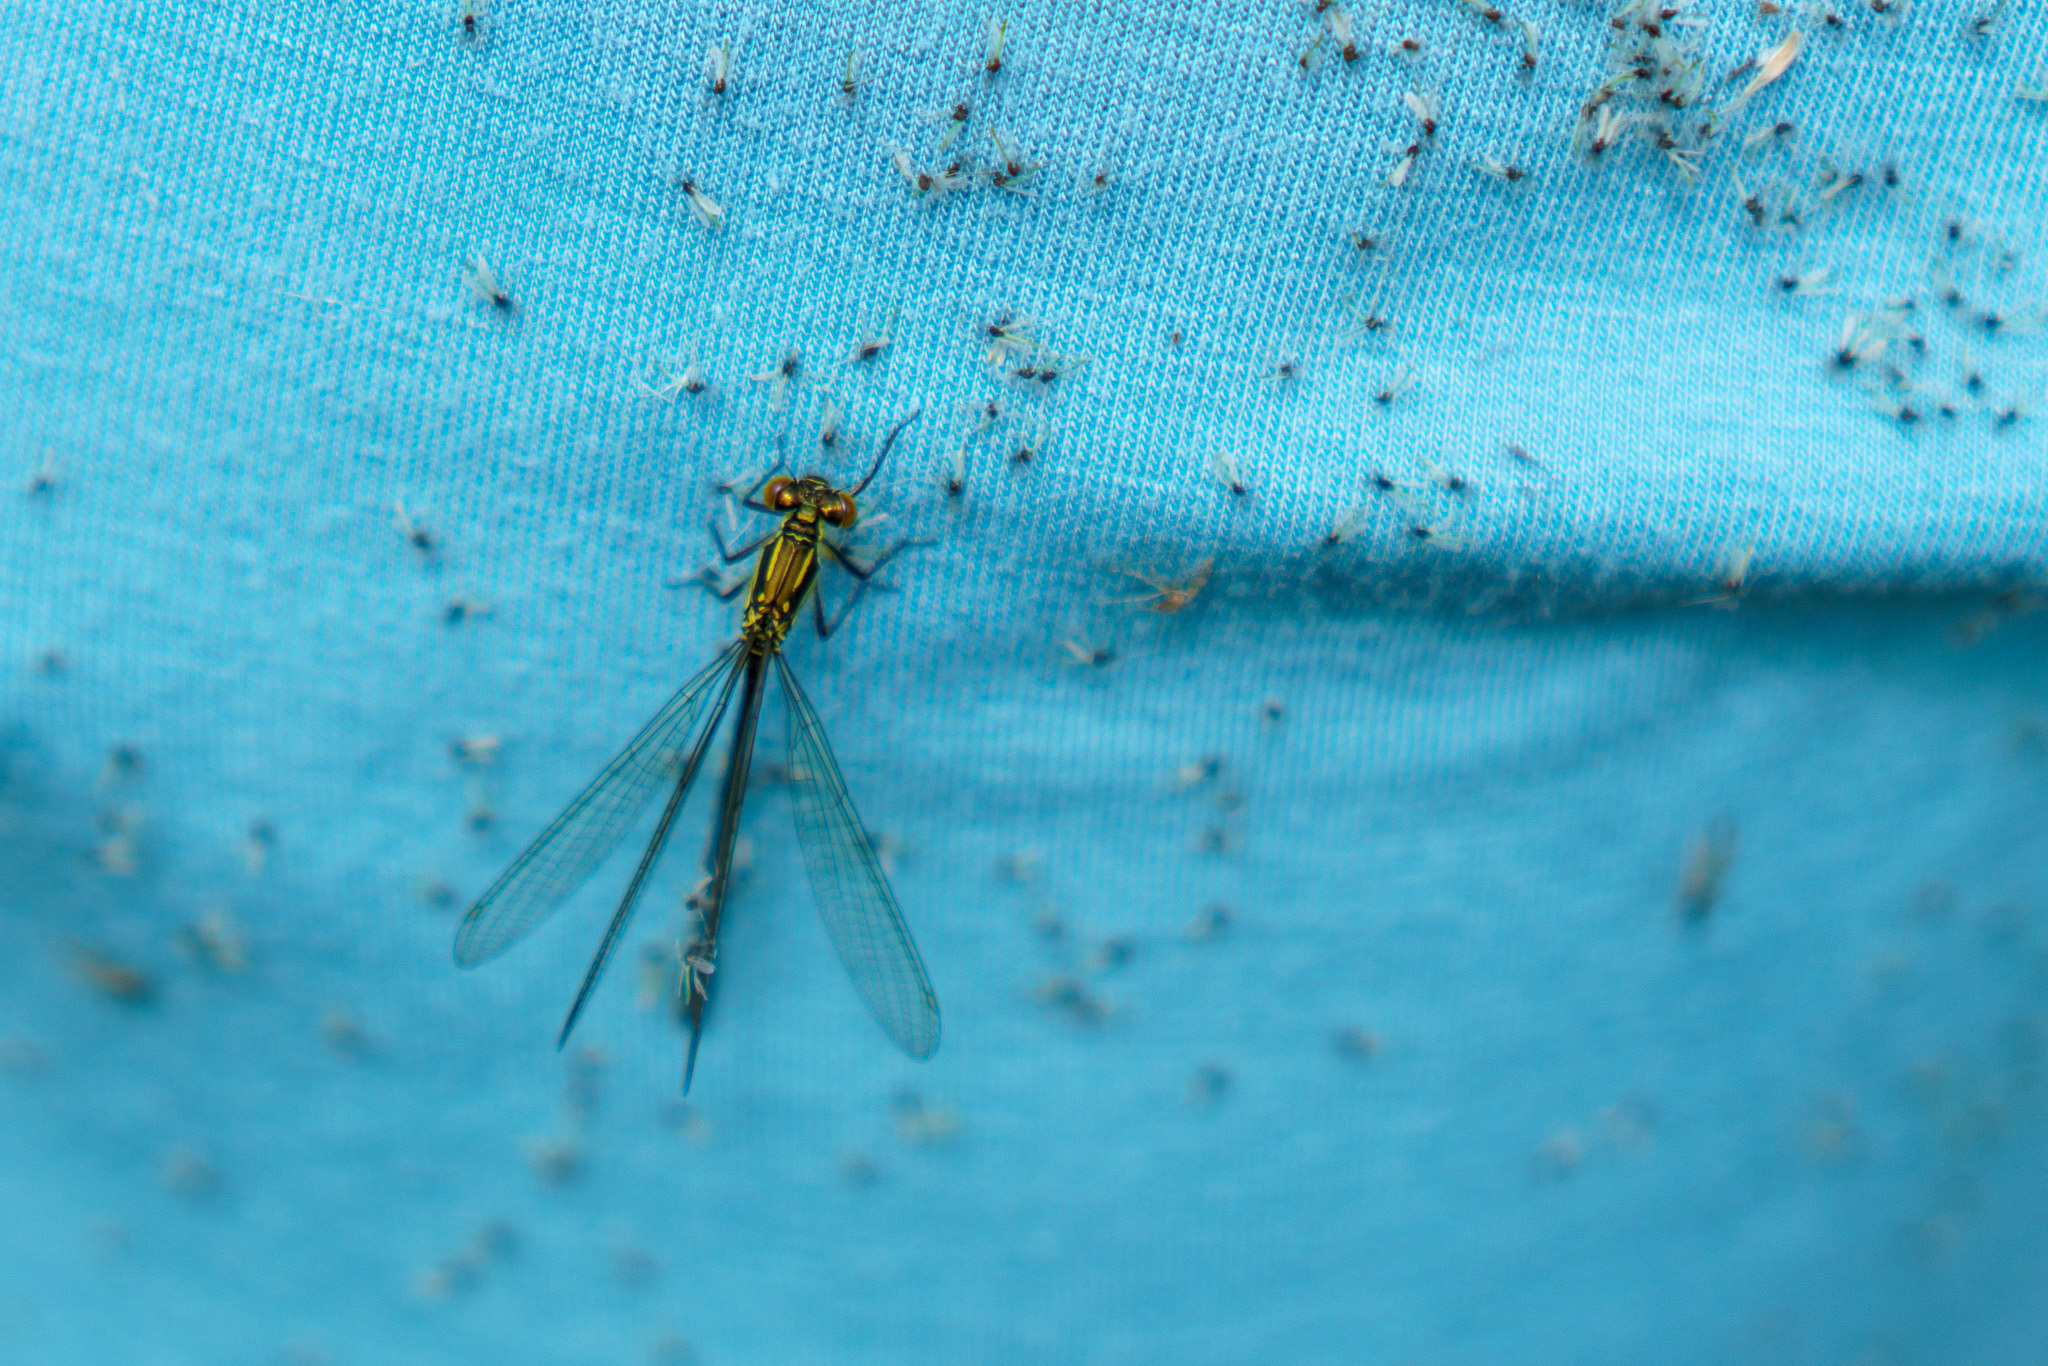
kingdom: Animalia
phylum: Arthropoda
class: Insecta
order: Odonata
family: Coenagrionidae
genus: Erythromma
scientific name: Erythromma najas
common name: Red-eyed damselfly
